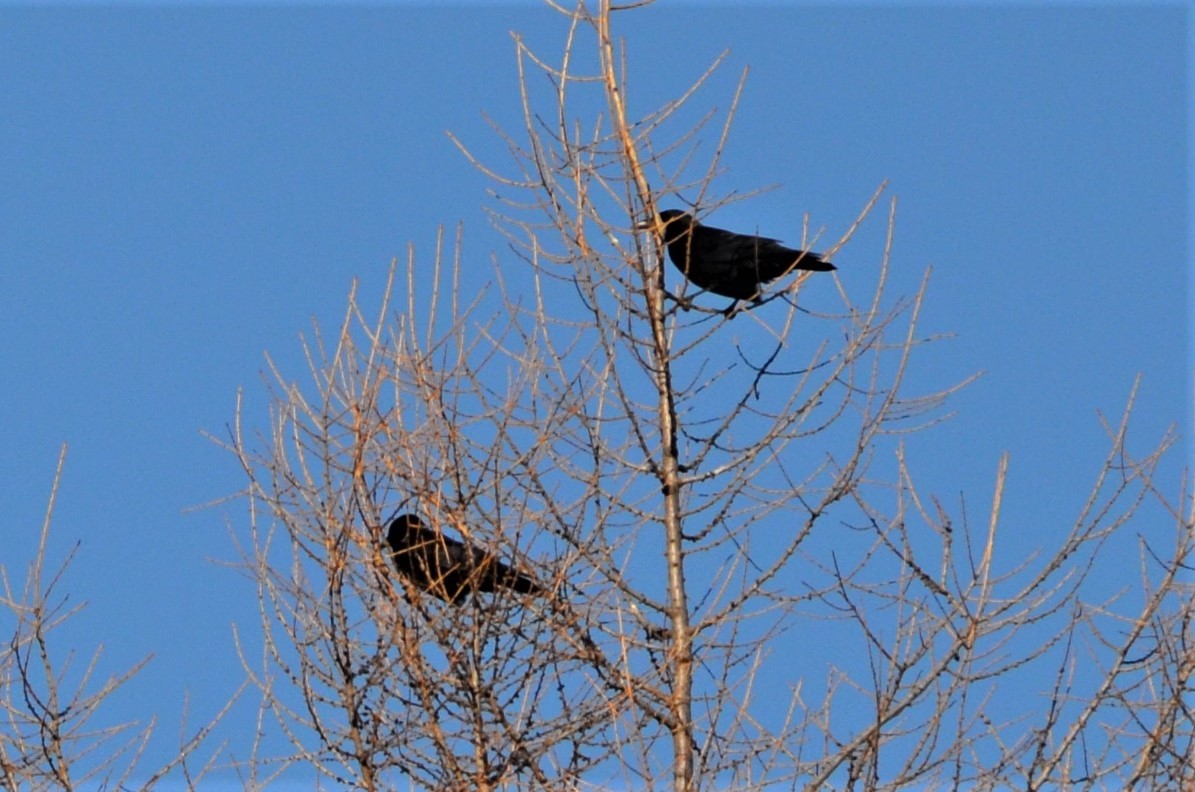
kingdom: Animalia
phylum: Chordata
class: Aves
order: Passeriformes
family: Corvidae
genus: Corvus
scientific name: Corvus corone
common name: Carrion crow
